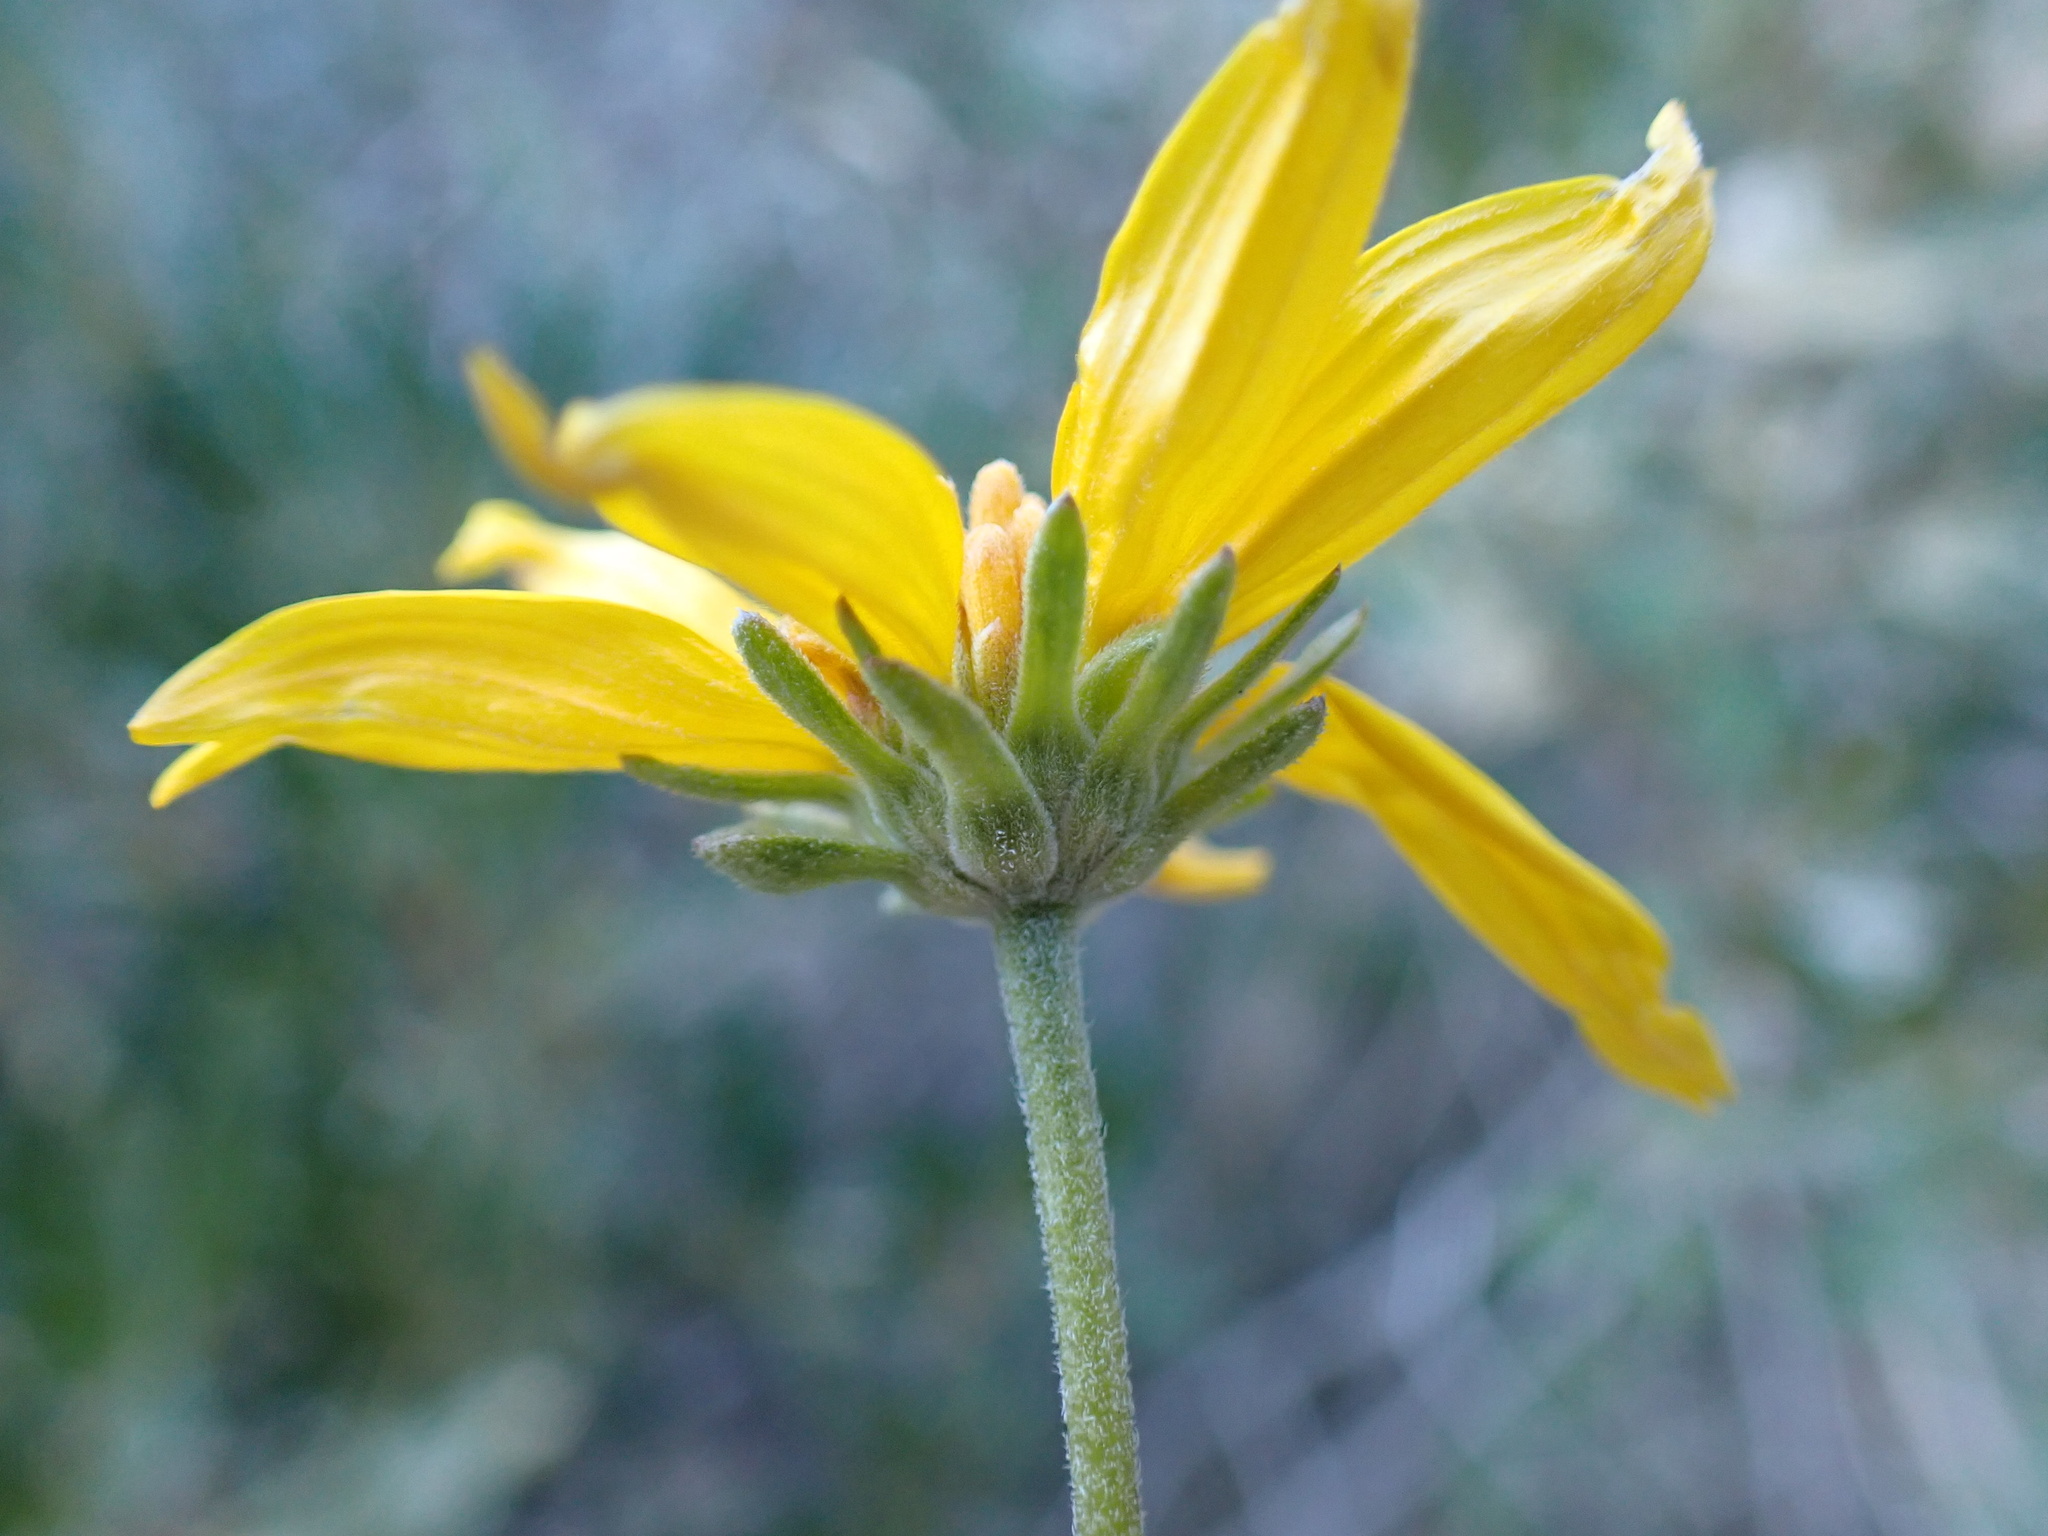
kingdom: Plantae
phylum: Tracheophyta
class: Magnoliopsida
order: Asterales
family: Asteraceae
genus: Bahiopsis
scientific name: Bahiopsis parishii
